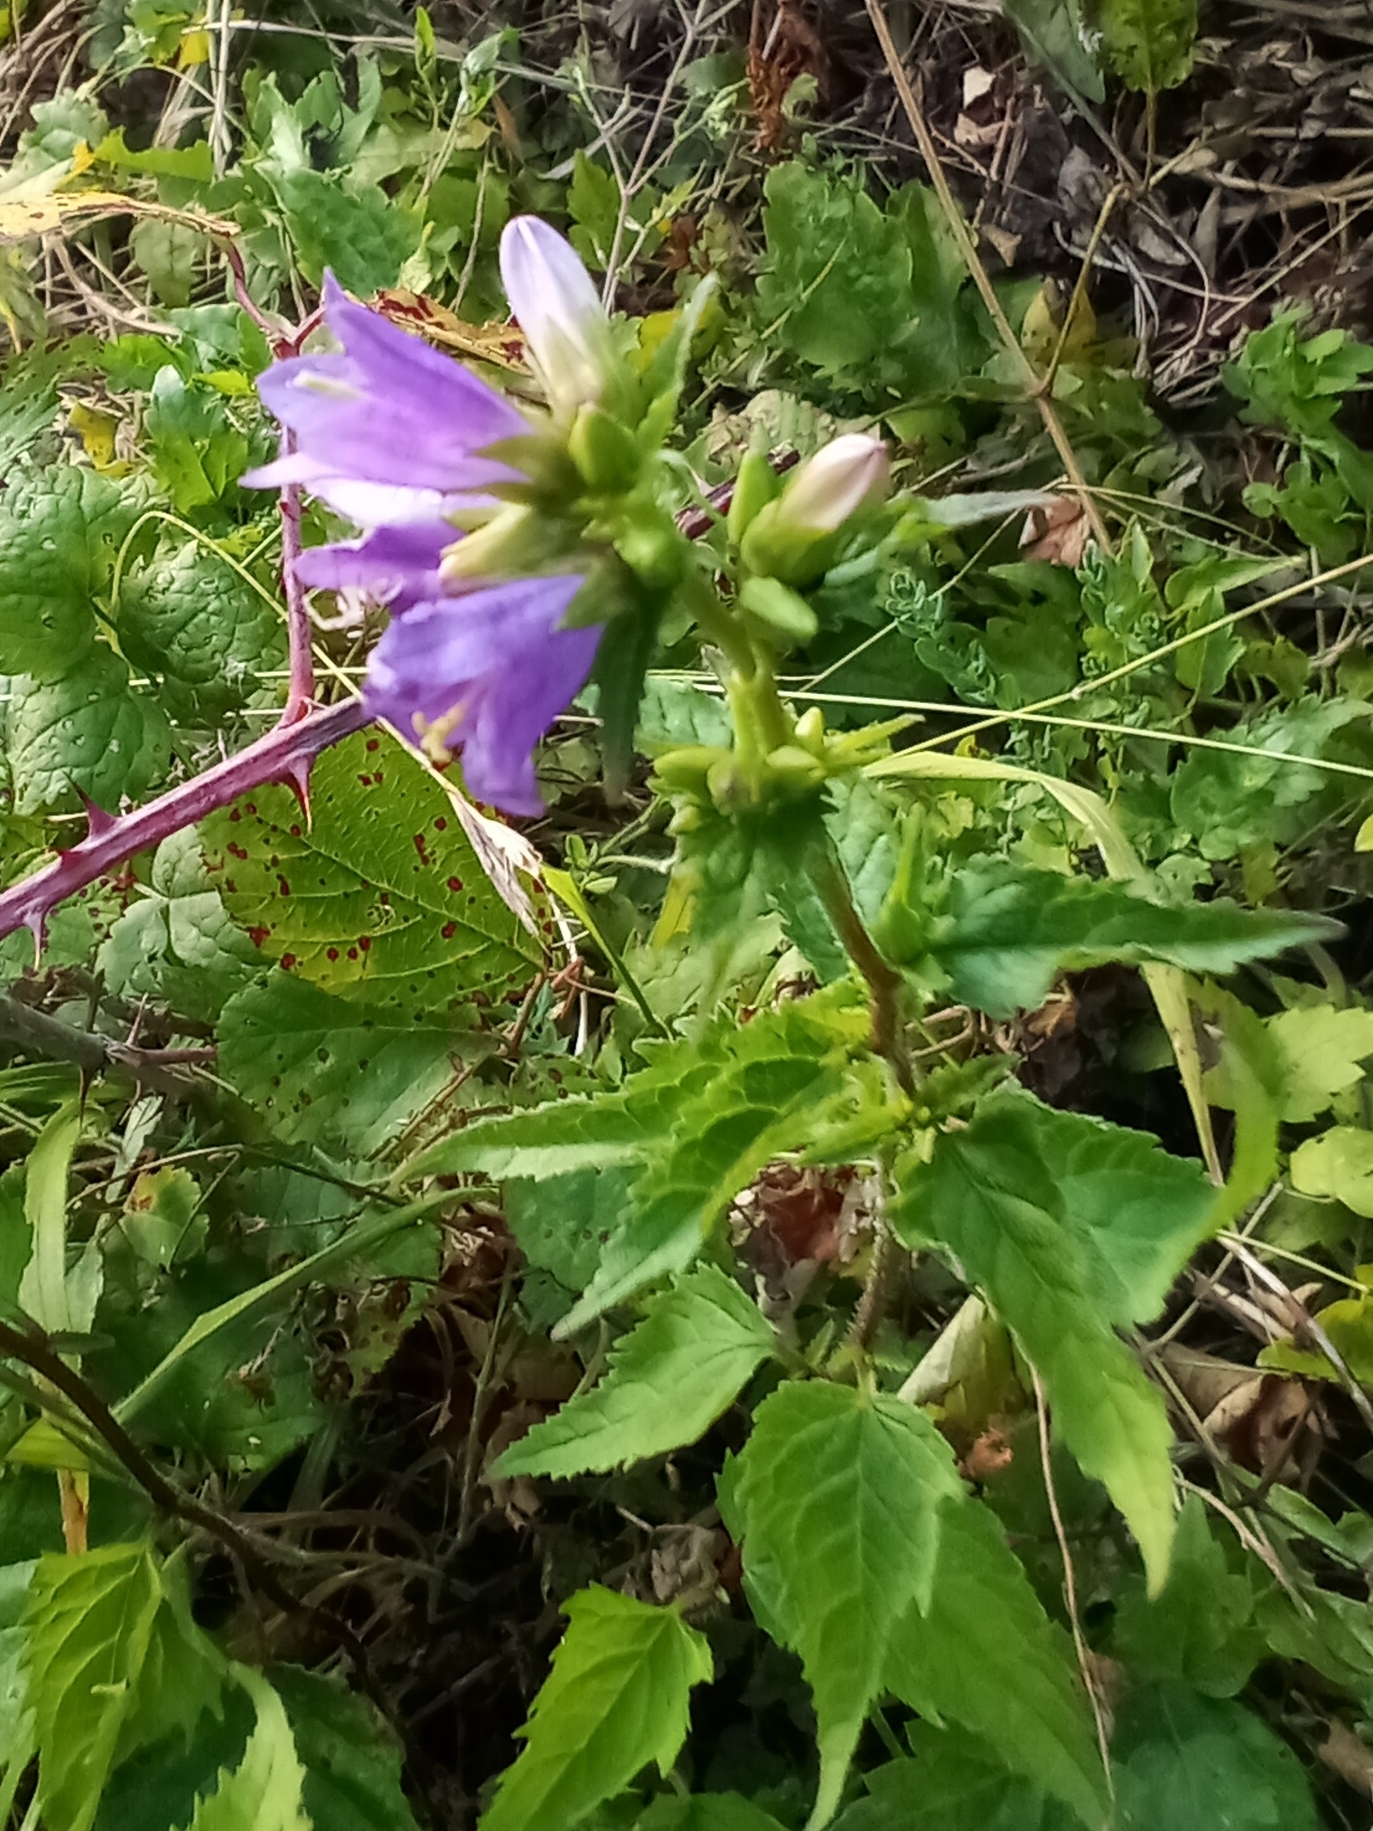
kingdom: Plantae
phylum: Tracheophyta
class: Magnoliopsida
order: Asterales
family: Campanulaceae
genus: Campanula
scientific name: Campanula trachelium
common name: Nettle-leaved bellflower
